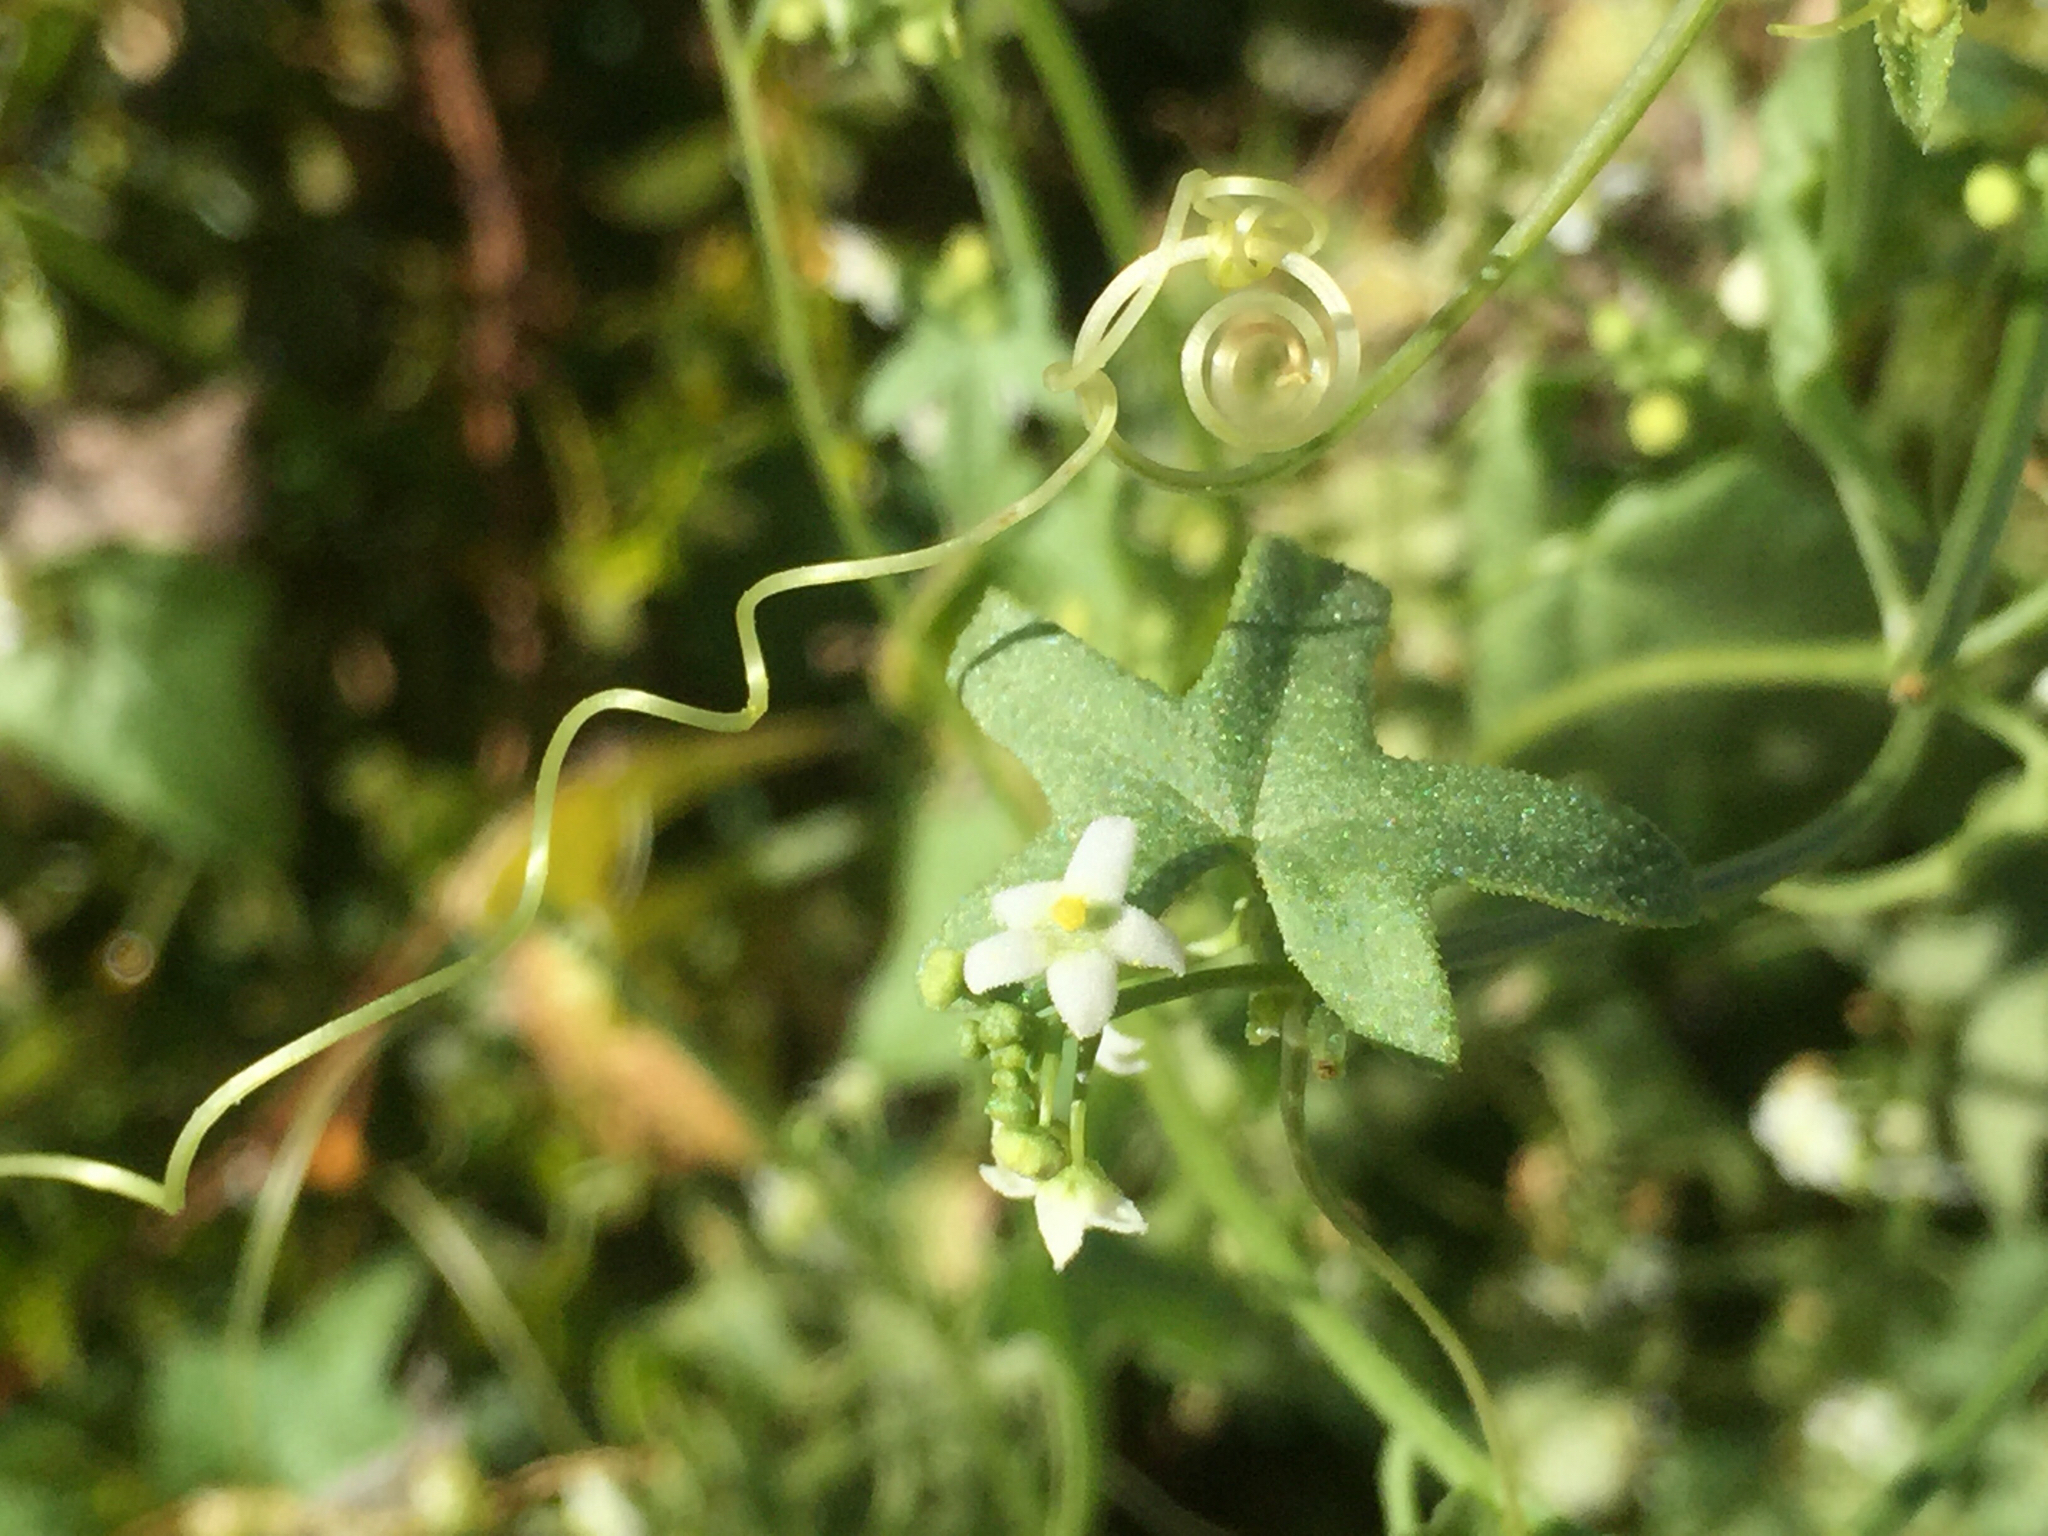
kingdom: Plantae
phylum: Tracheophyta
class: Magnoliopsida
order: Cucurbitales
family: Cucurbitaceae
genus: Echinopepon
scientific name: Echinopepon bigelovii
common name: Desert starvine
